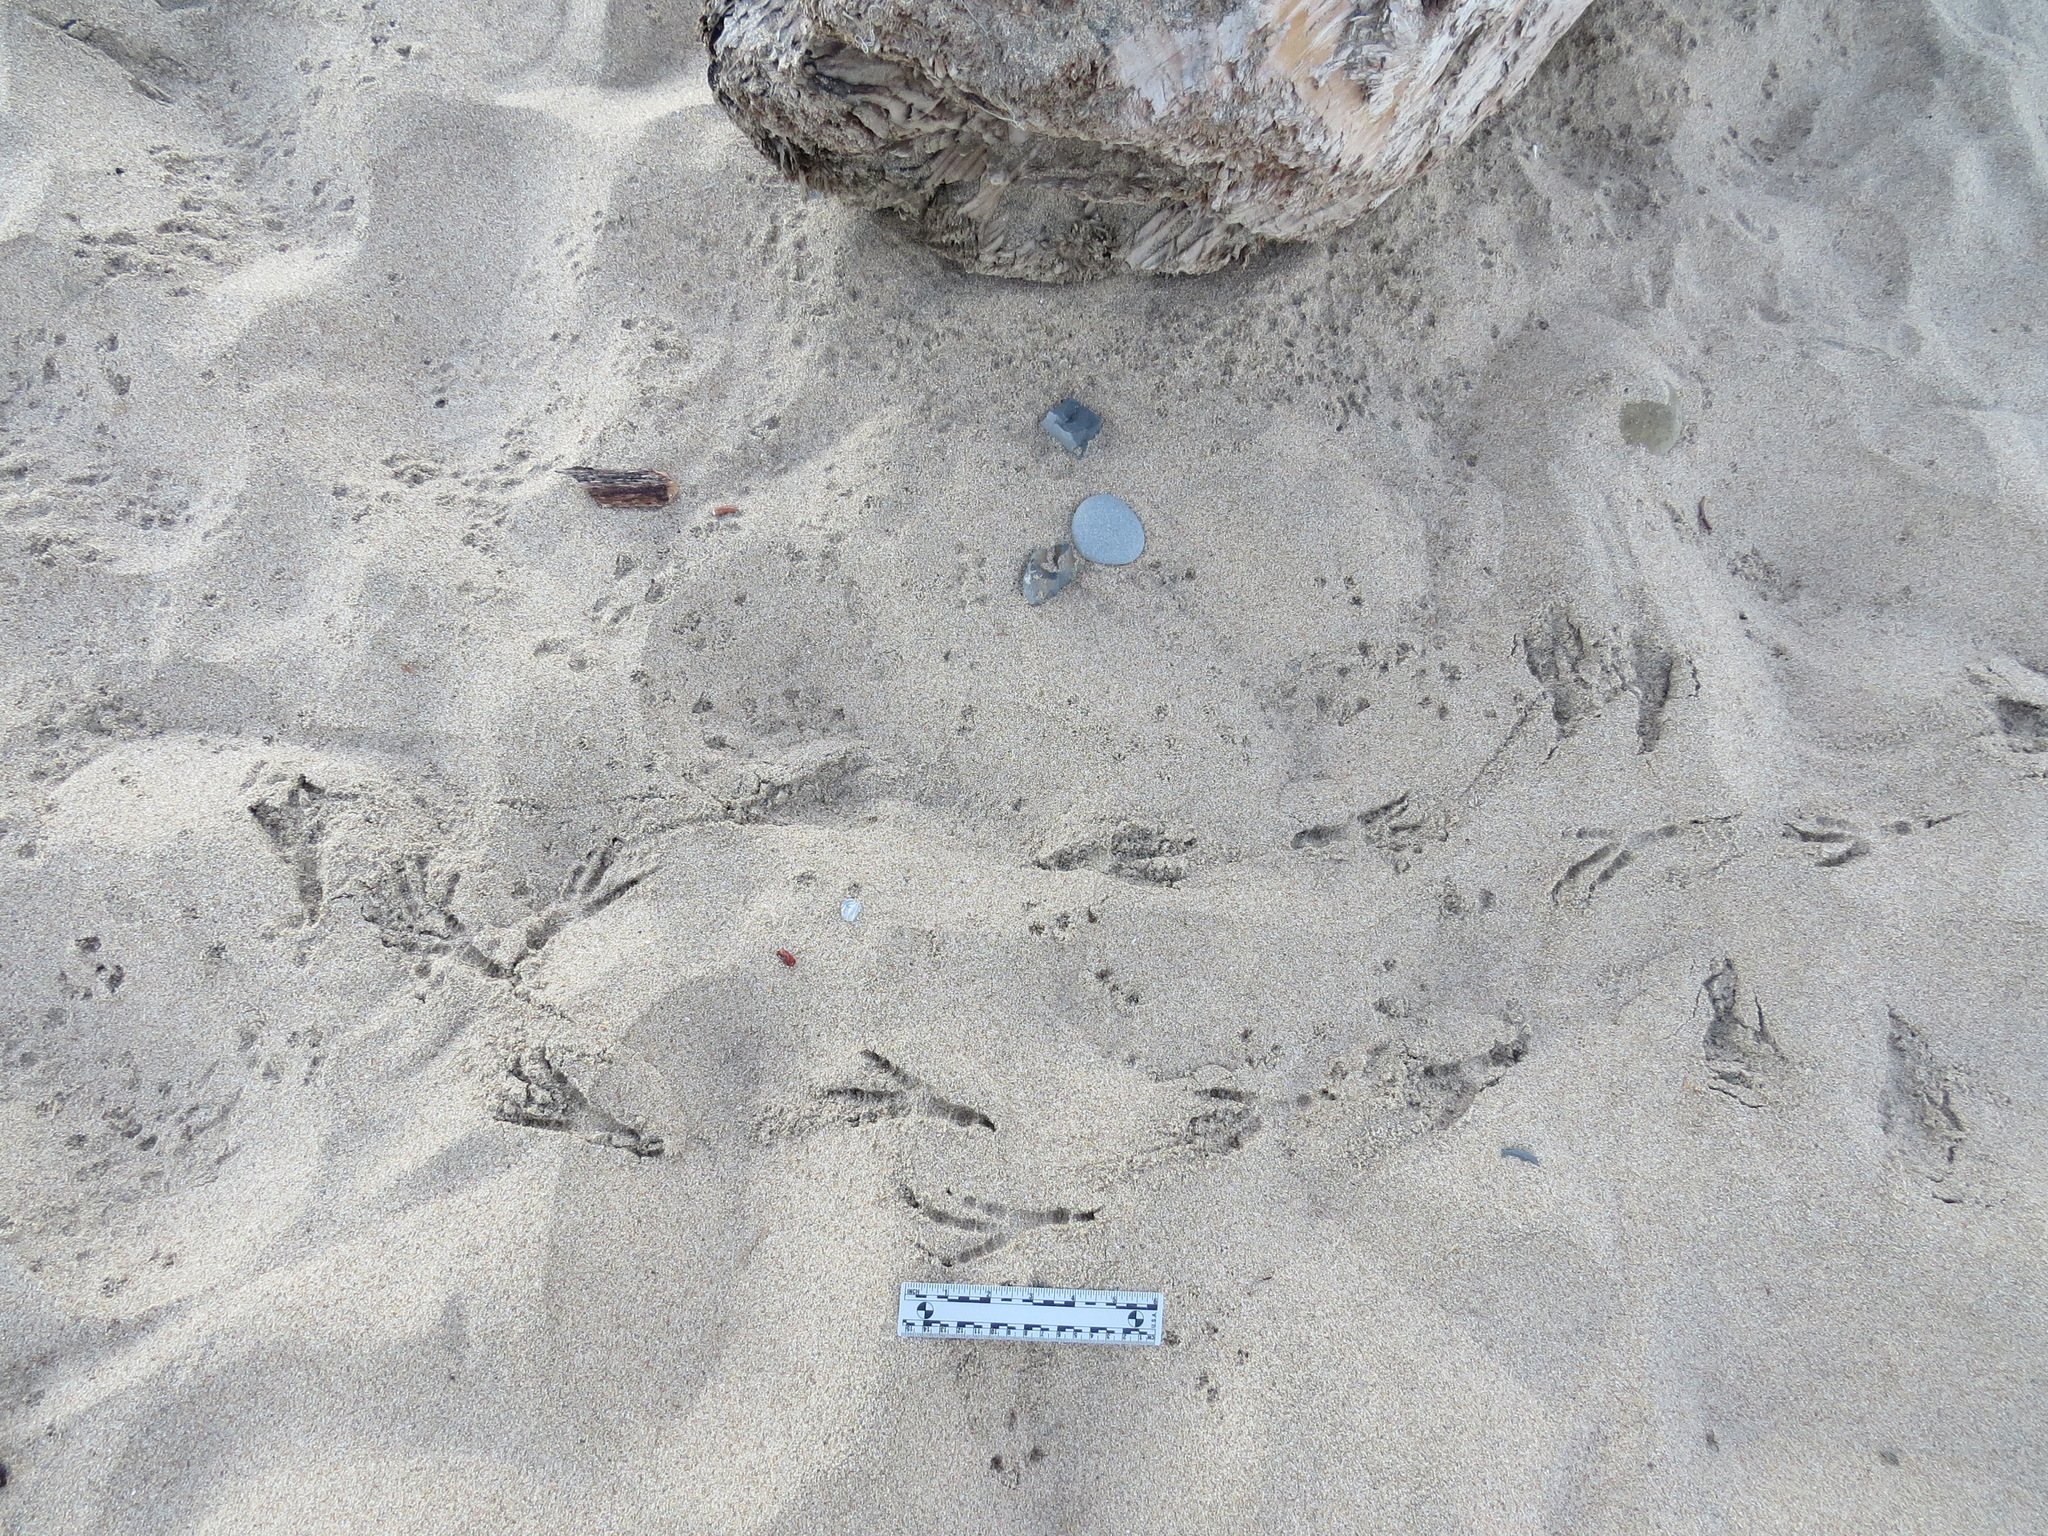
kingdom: Animalia
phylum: Chordata
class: Aves
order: Passeriformes
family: Corvidae
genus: Corvus
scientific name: Corvus corax
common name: Common raven
